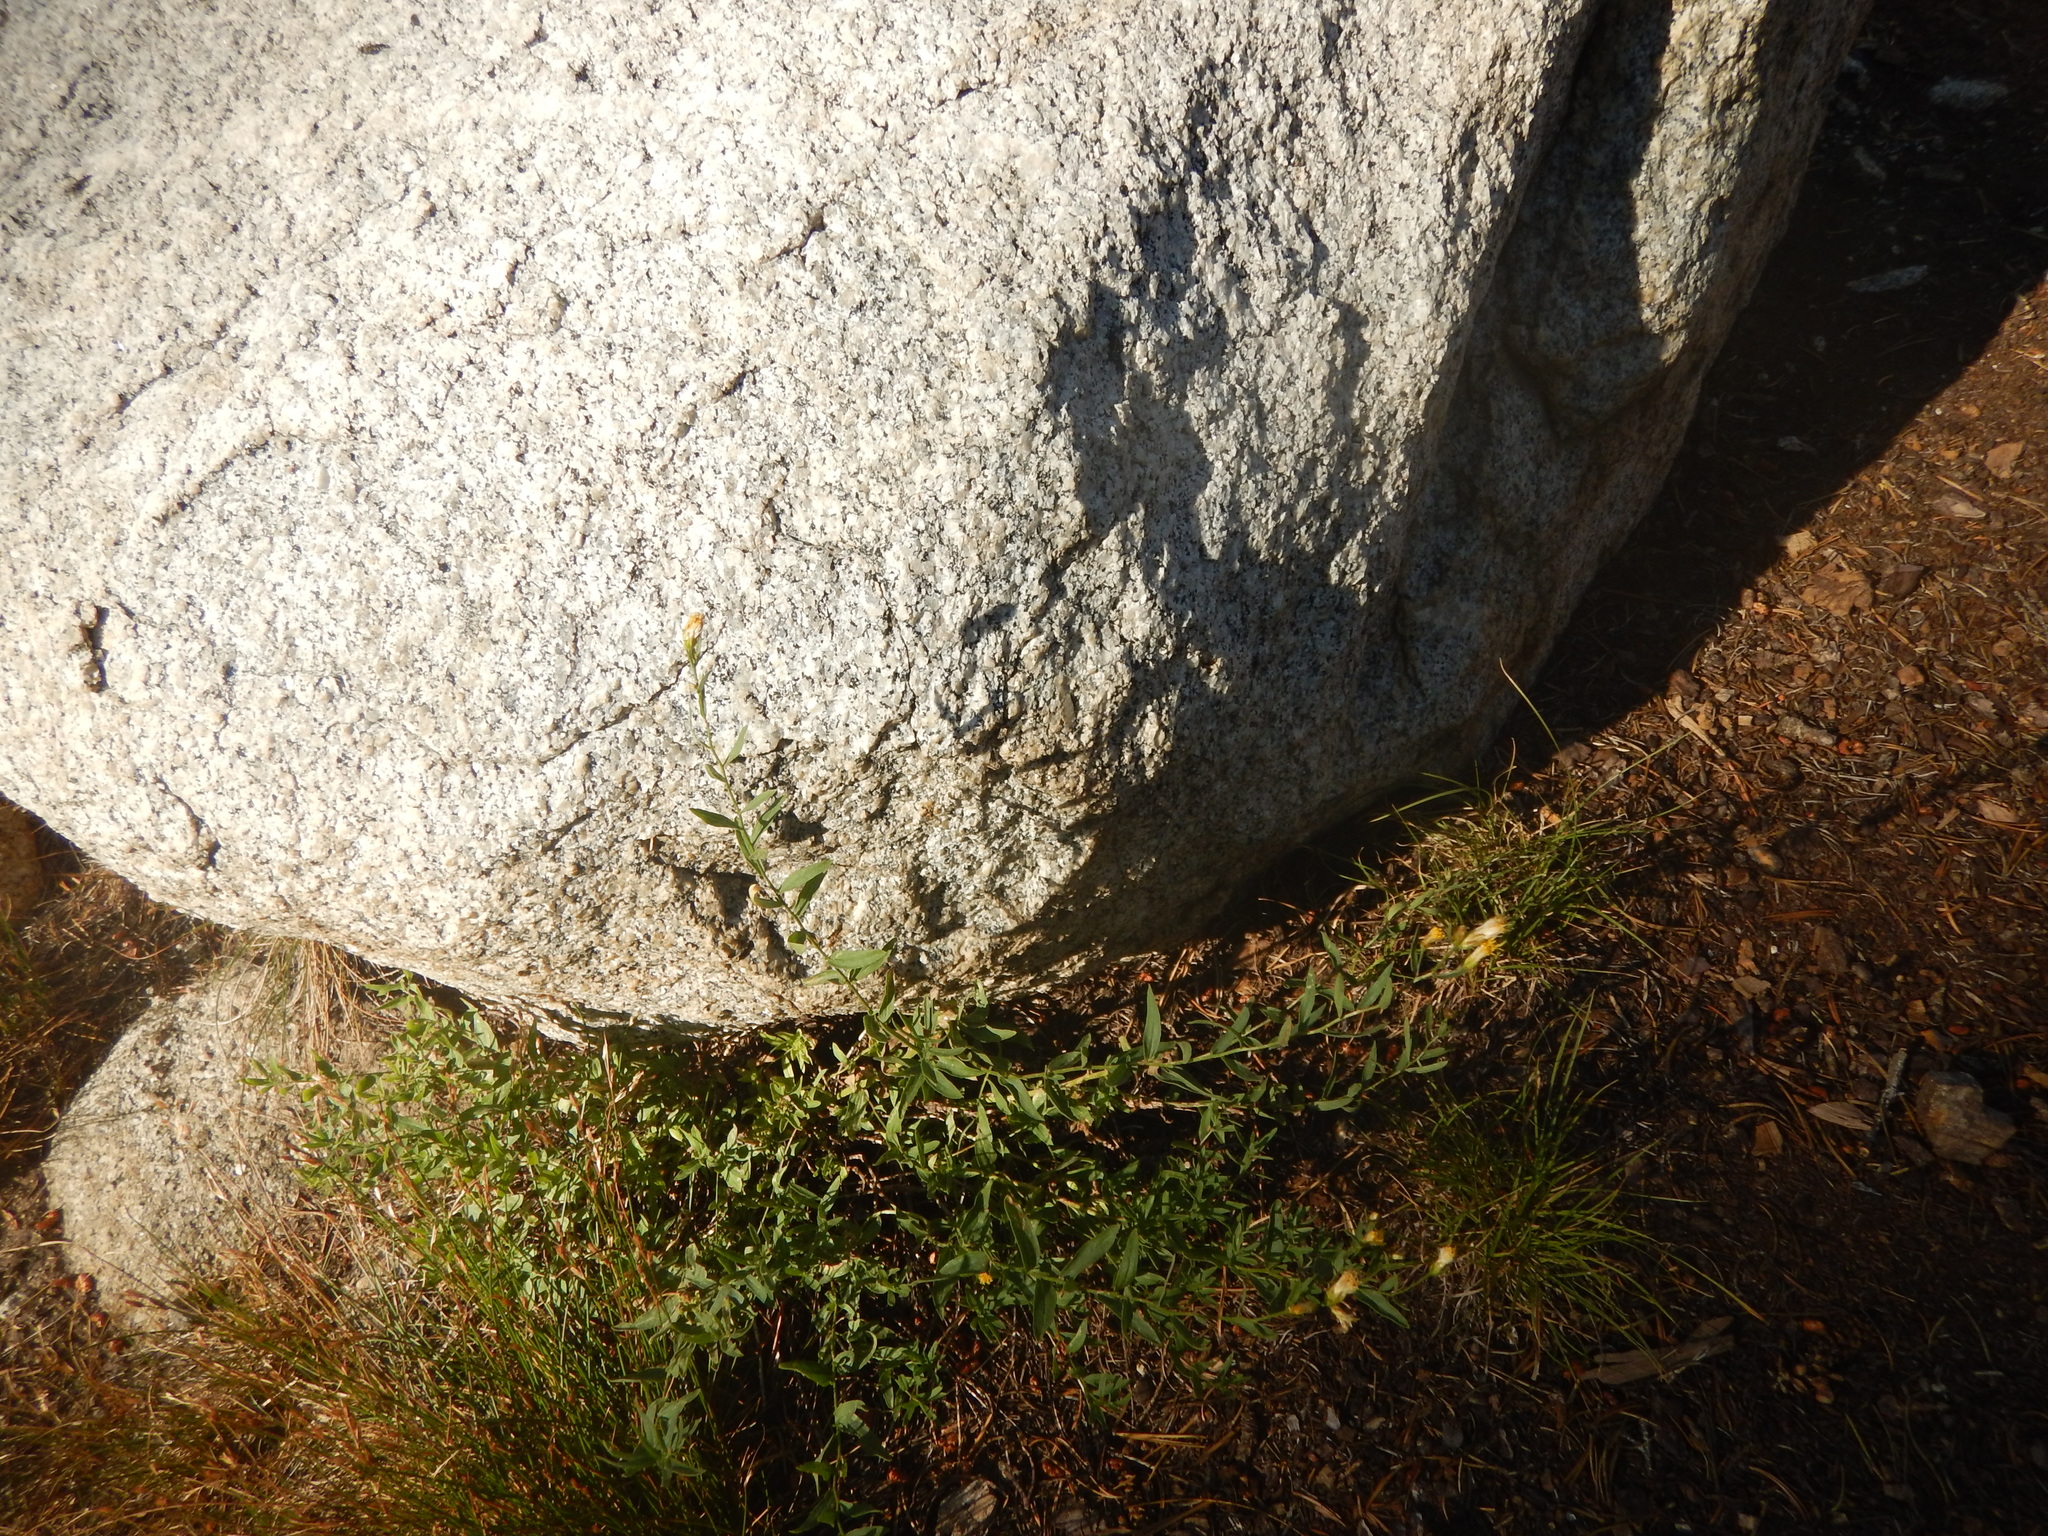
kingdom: Plantae
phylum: Tracheophyta
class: Magnoliopsida
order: Asterales
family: Asteraceae
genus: Eucephalus
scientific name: Eucephalus breweri
